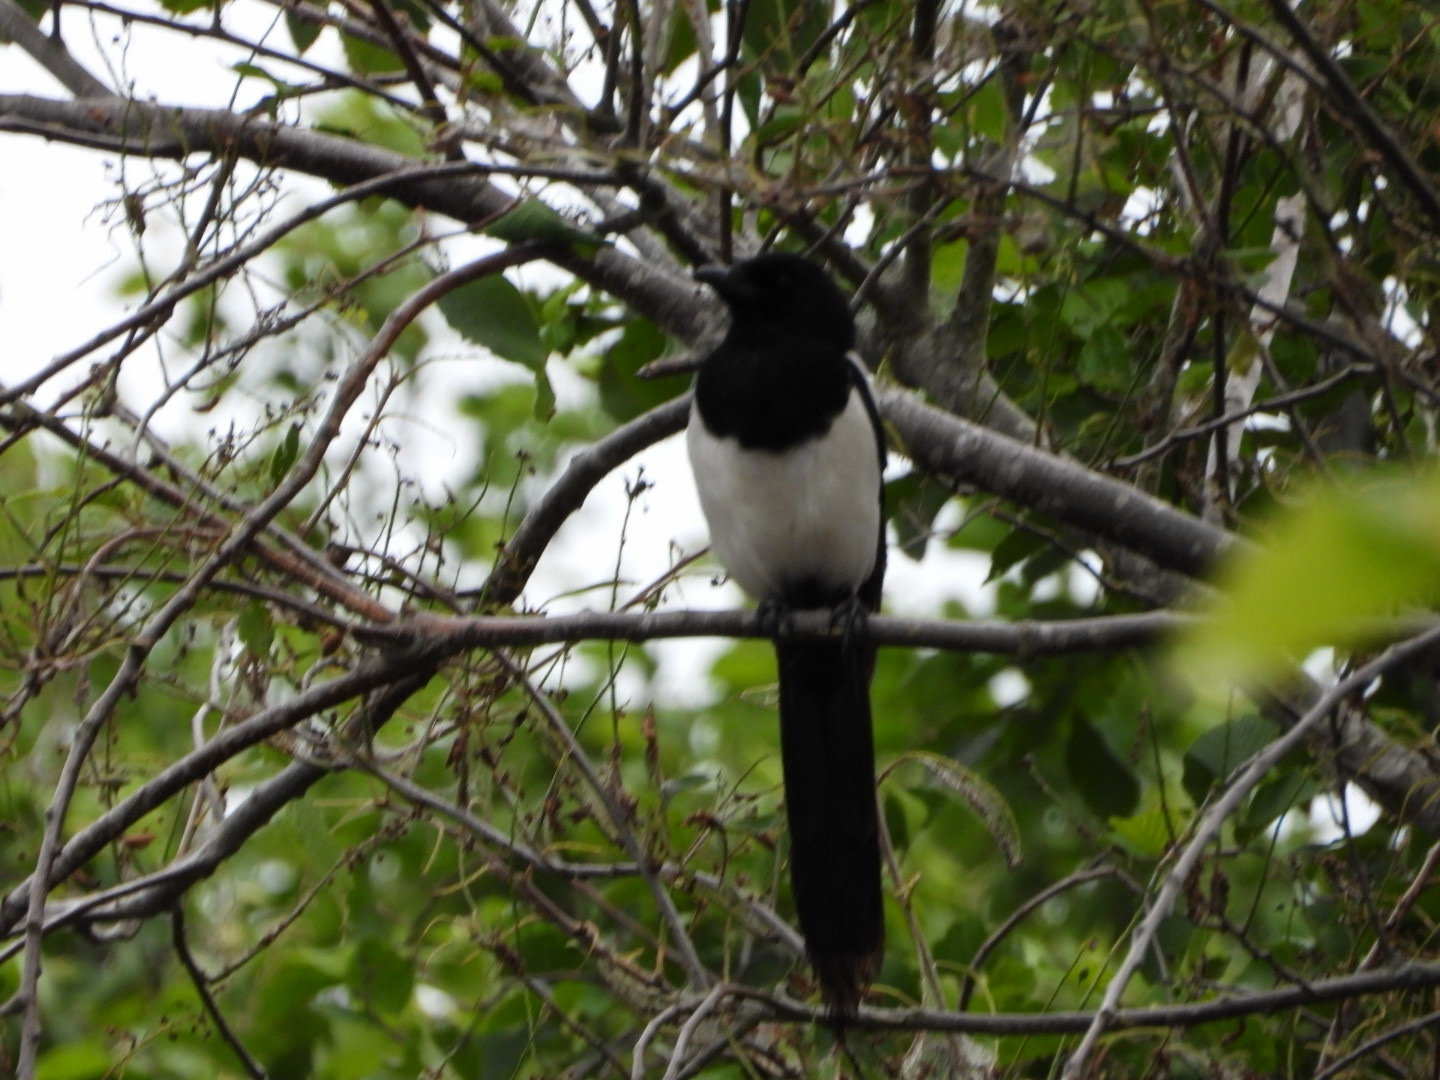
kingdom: Animalia
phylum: Chordata
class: Aves
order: Passeriformes
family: Corvidae
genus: Pica
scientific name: Pica pica
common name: Eurasian magpie
